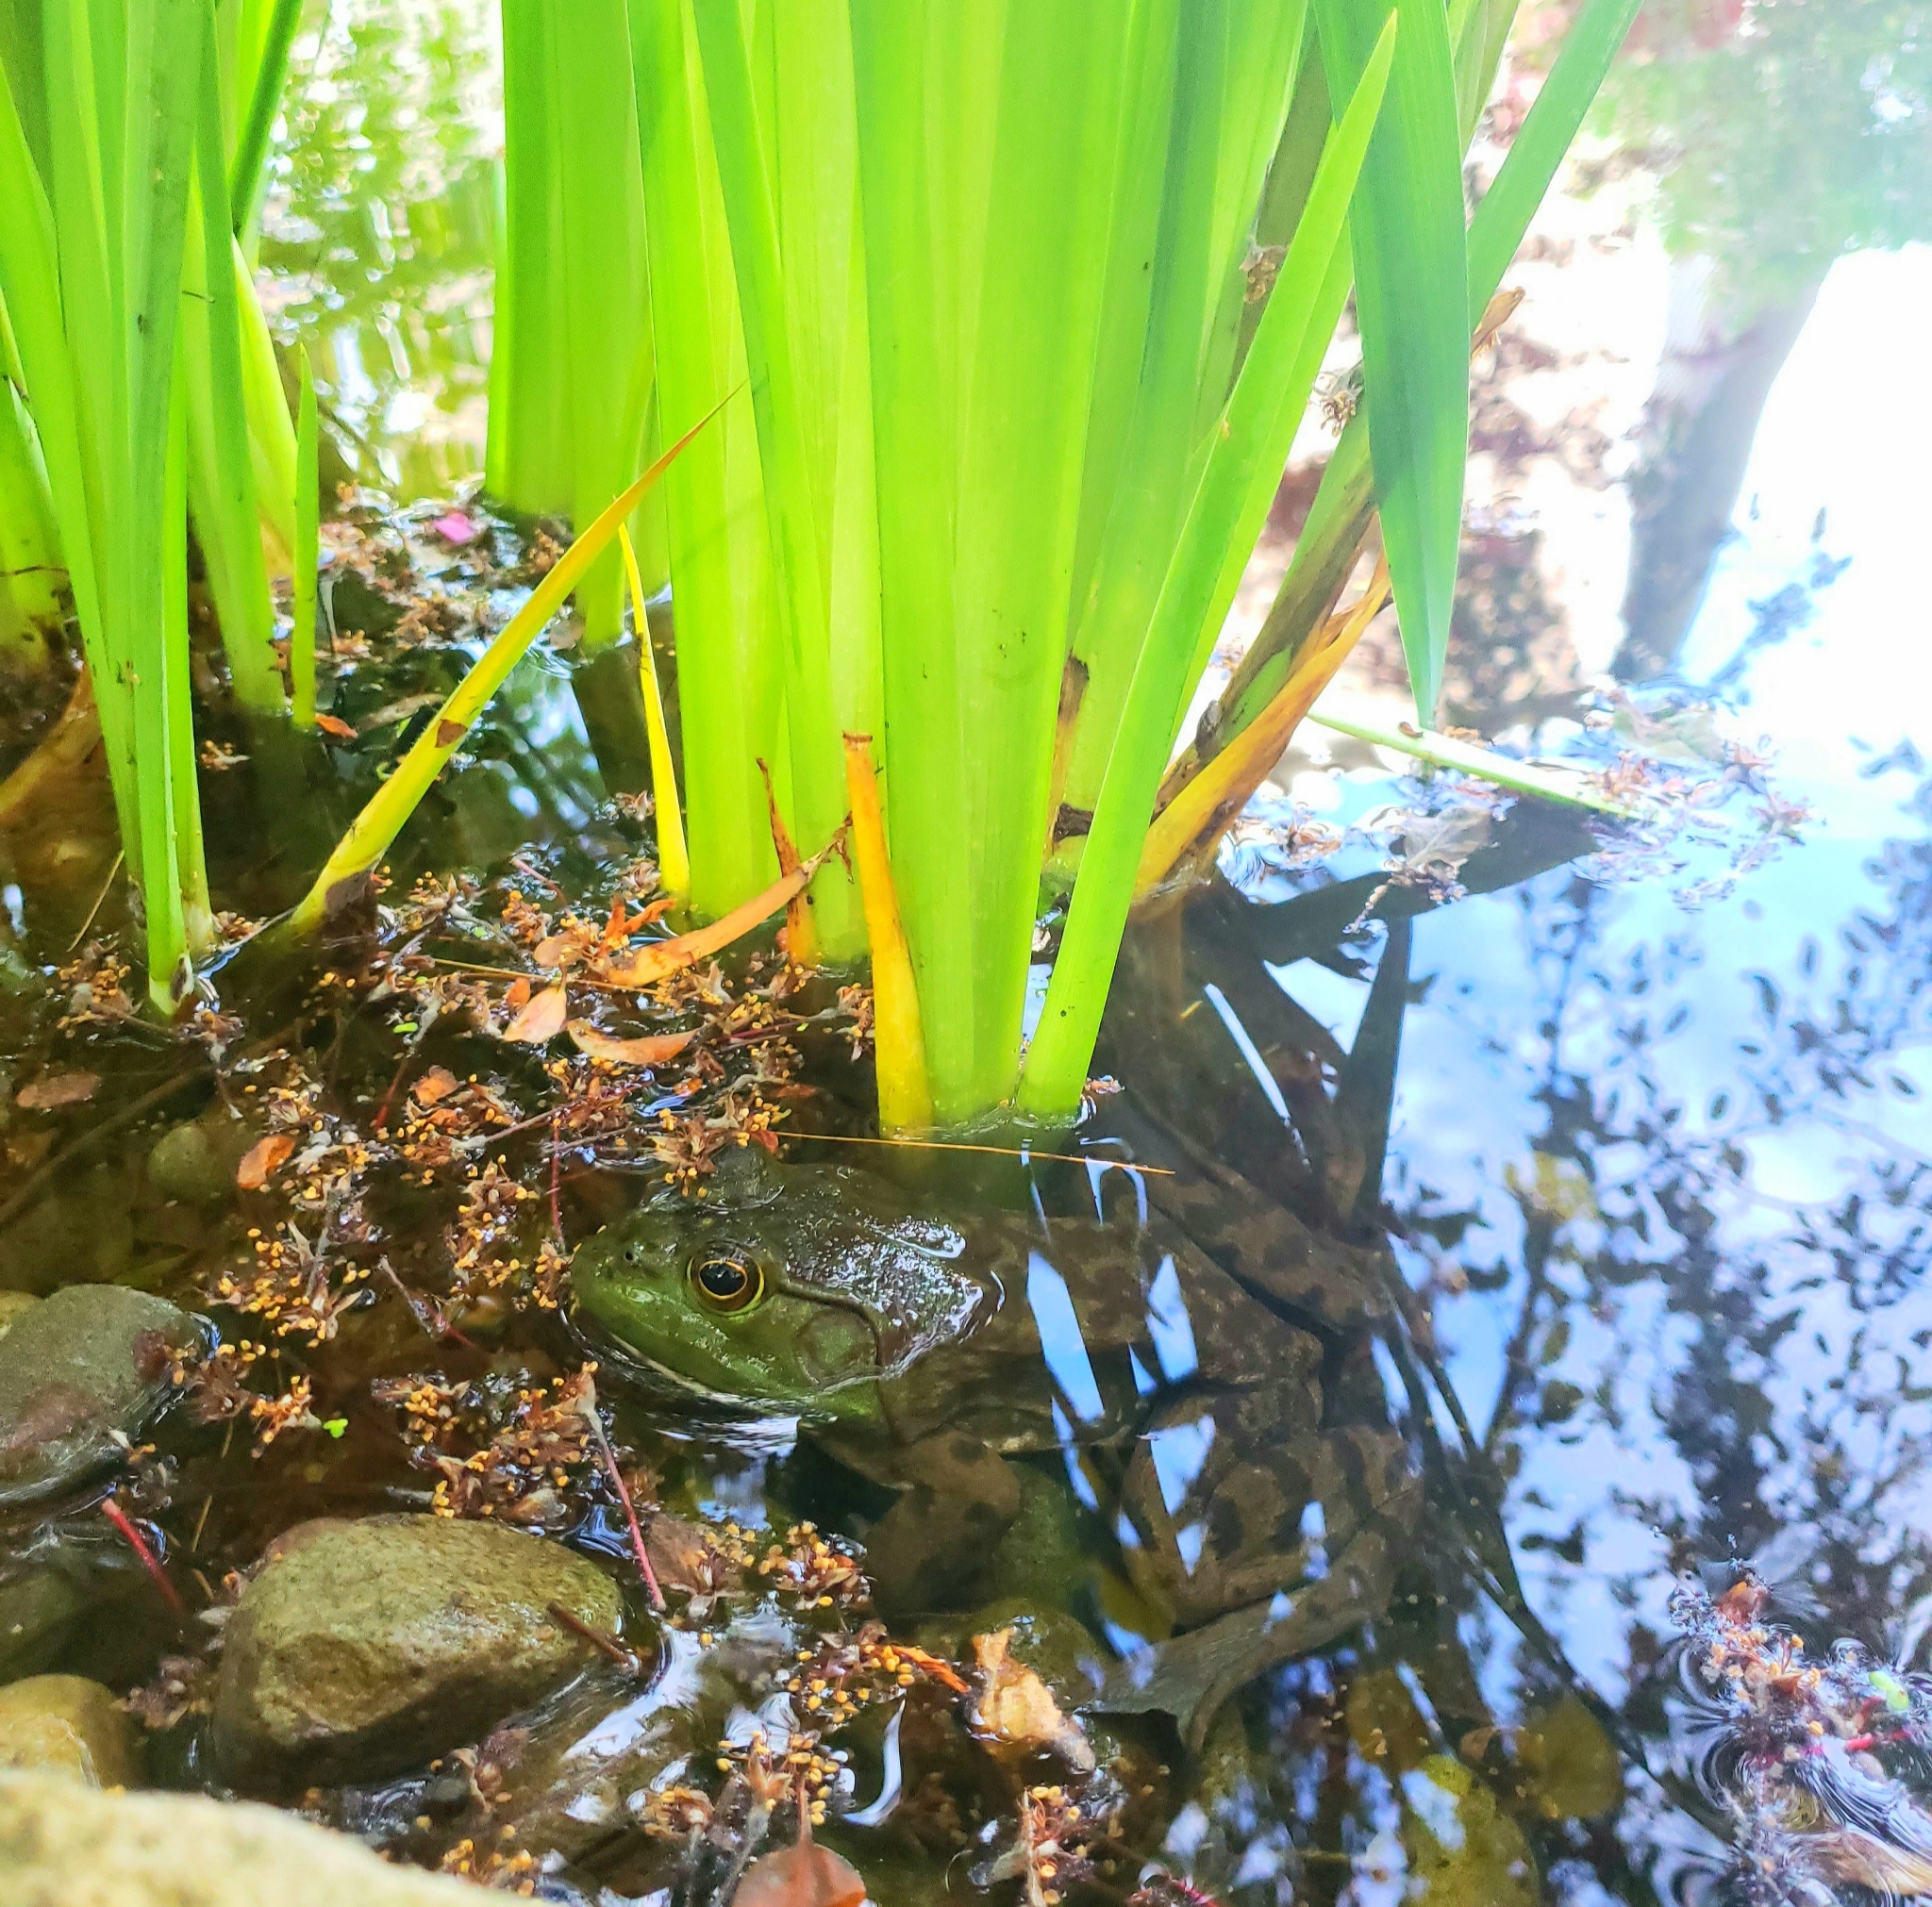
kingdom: Animalia
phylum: Chordata
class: Amphibia
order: Anura
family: Ranidae
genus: Lithobates
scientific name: Lithobates catesbeianus
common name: American bullfrog
